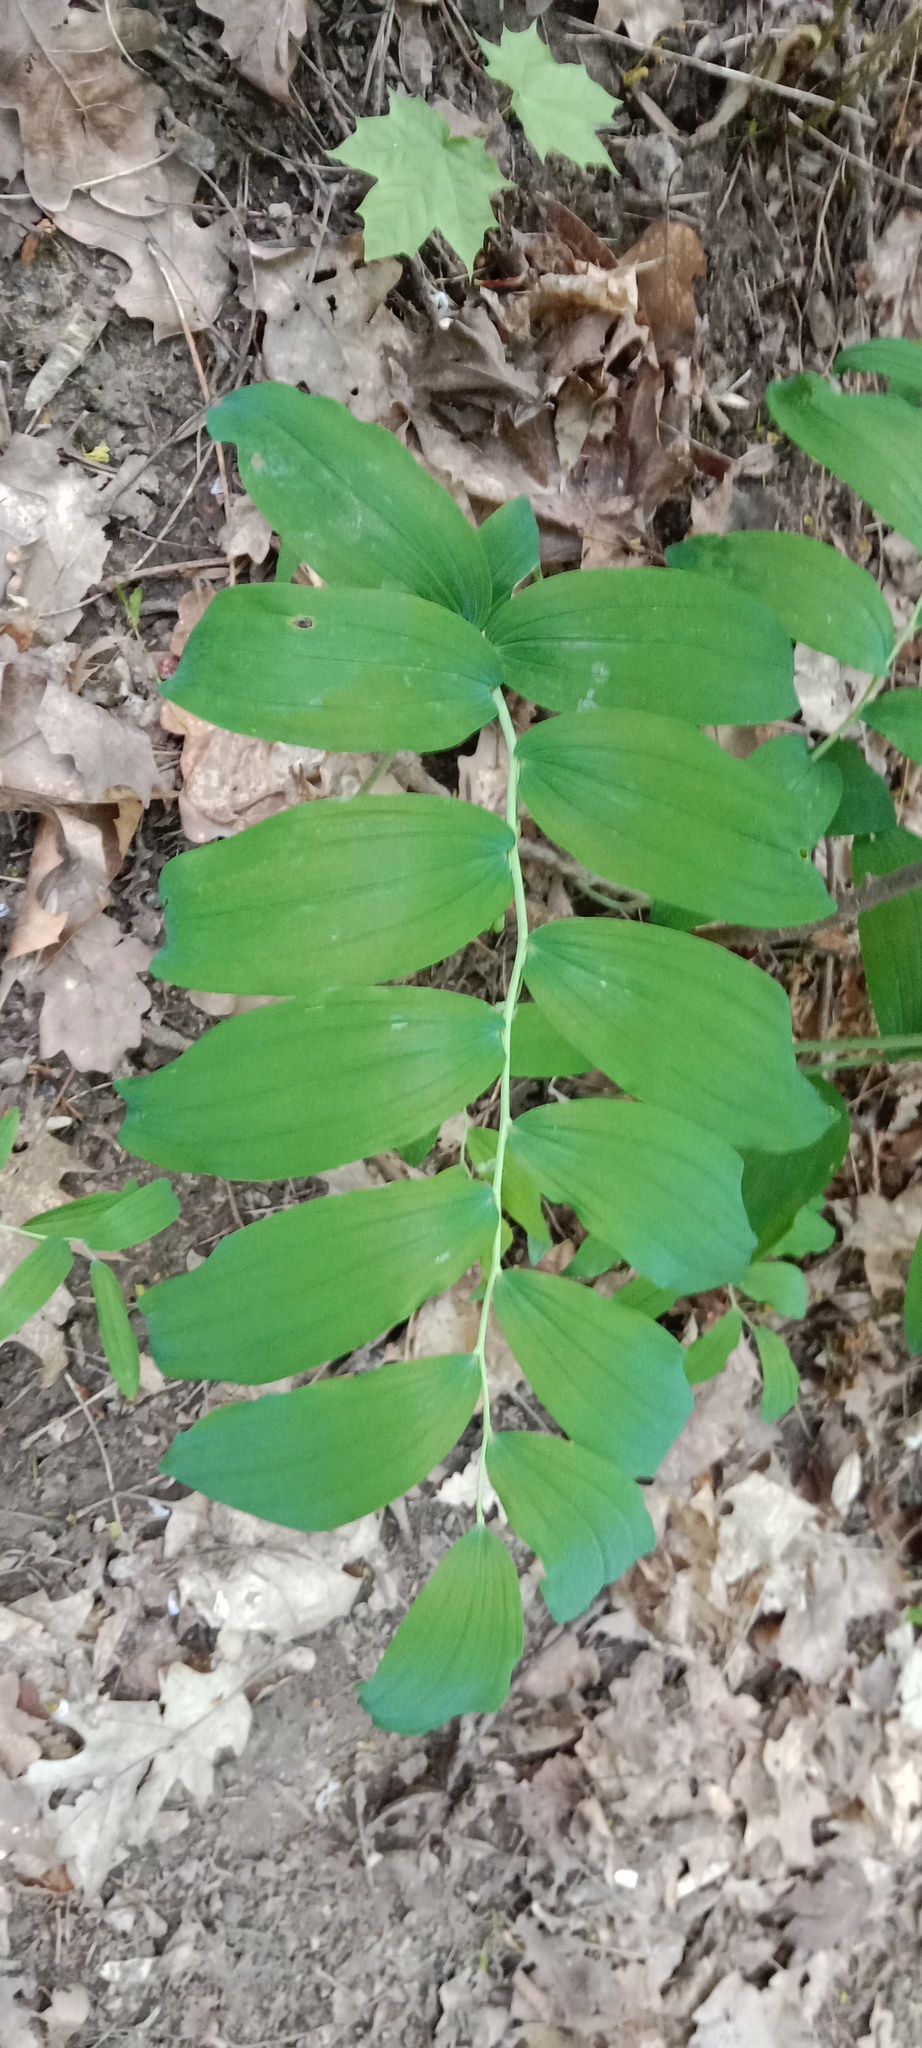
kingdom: Plantae
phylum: Tracheophyta
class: Liliopsida
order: Asparagales
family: Asparagaceae
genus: Polygonatum
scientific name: Polygonatum multiflorum
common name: Solomon's-seal
